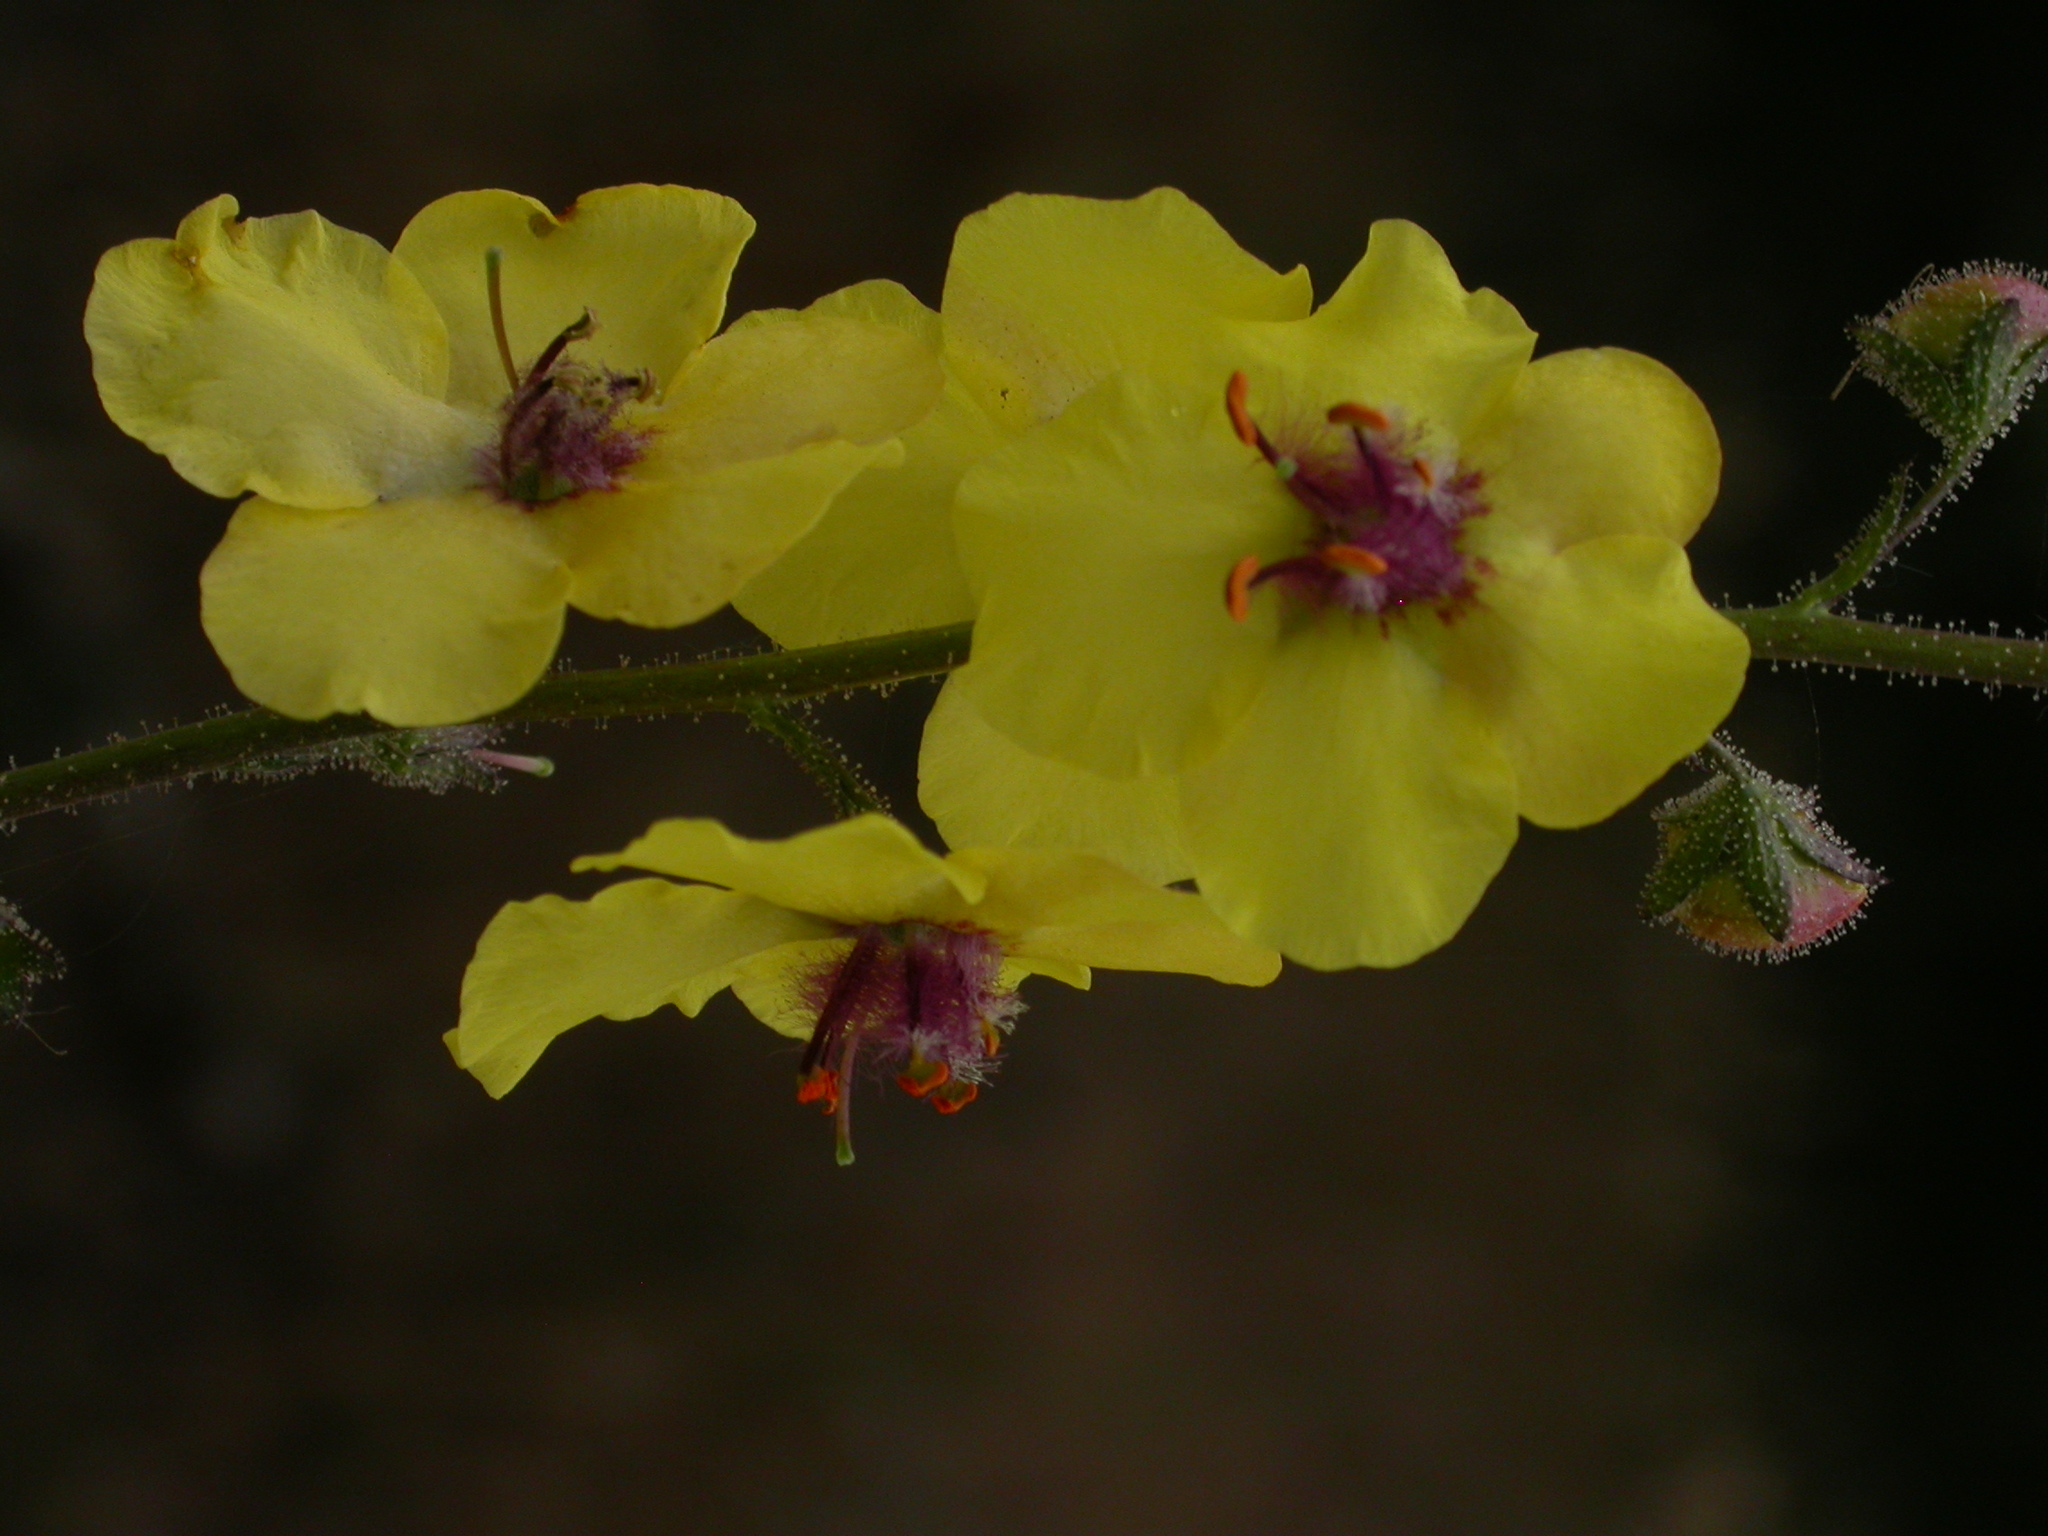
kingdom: Plantae
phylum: Tracheophyta
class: Magnoliopsida
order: Lamiales
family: Scrophulariaceae
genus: Verbascum
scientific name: Verbascum blattaria
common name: Moth mullein
